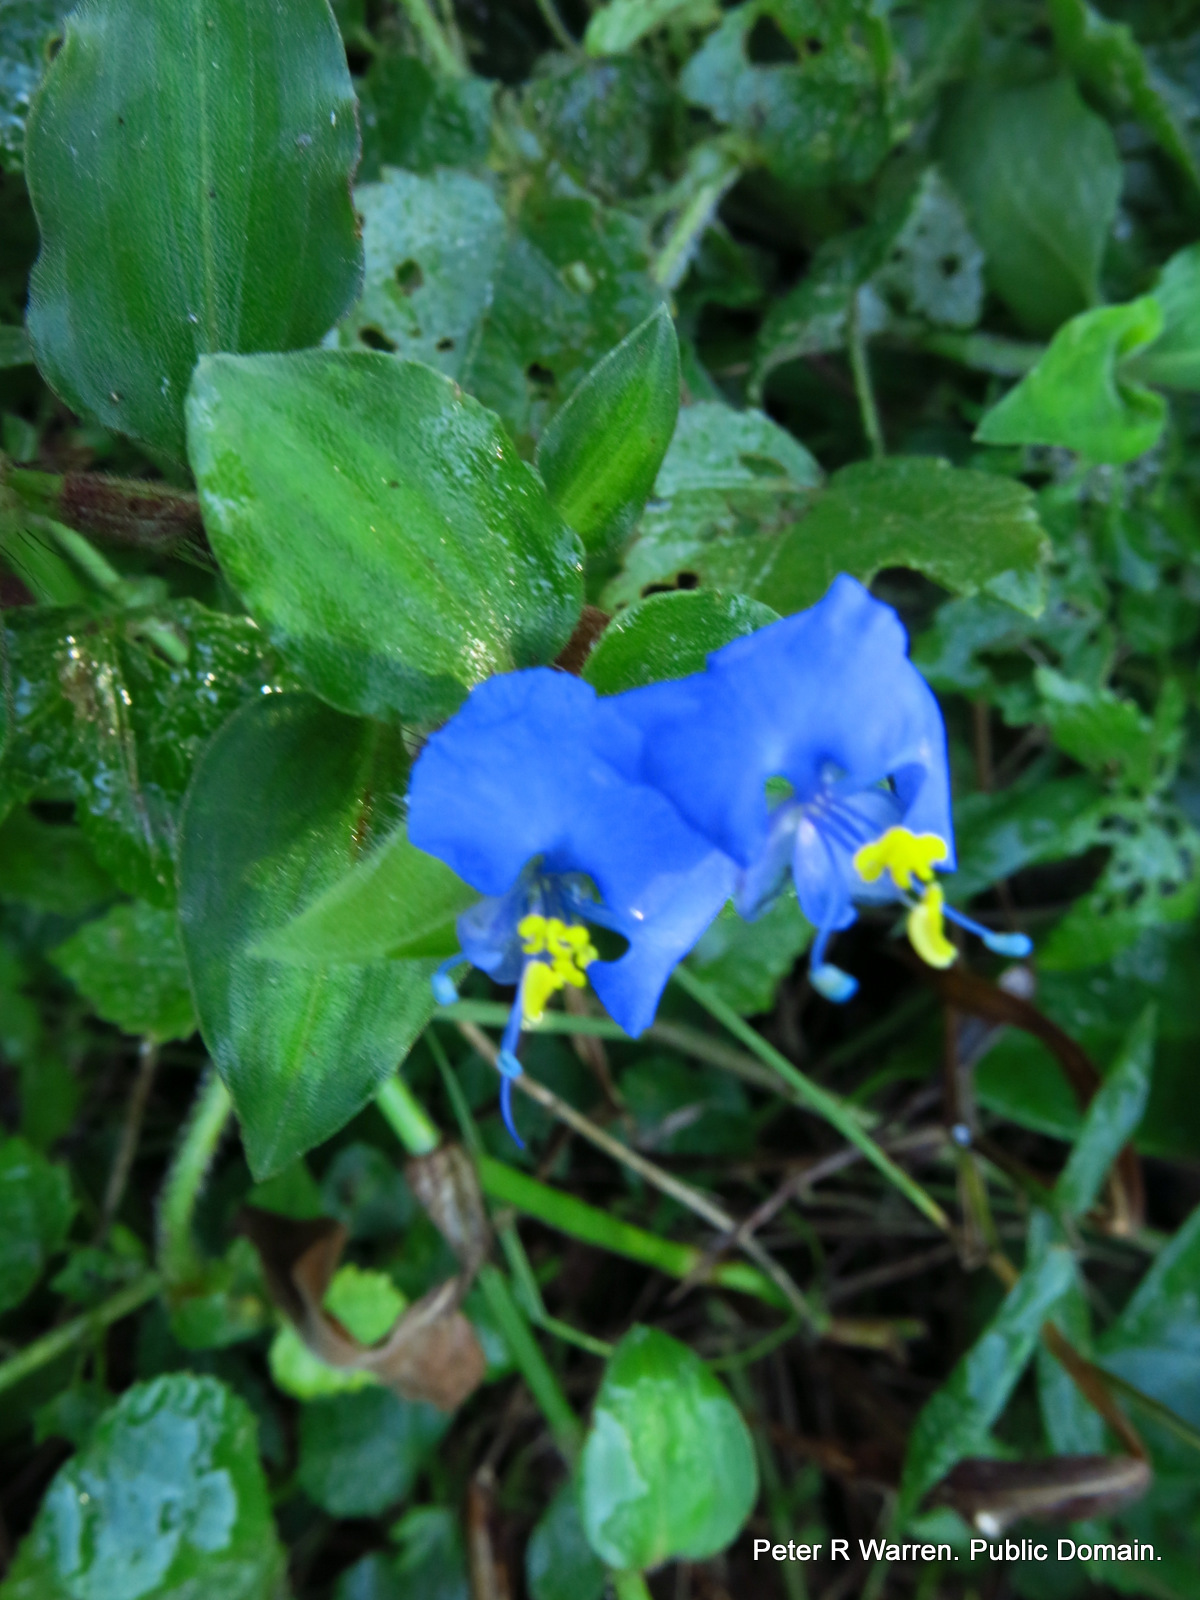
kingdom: Plantae
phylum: Tracheophyta
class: Liliopsida
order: Commelinales
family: Commelinaceae
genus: Commelina
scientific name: Commelina benghalensis
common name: Jio
